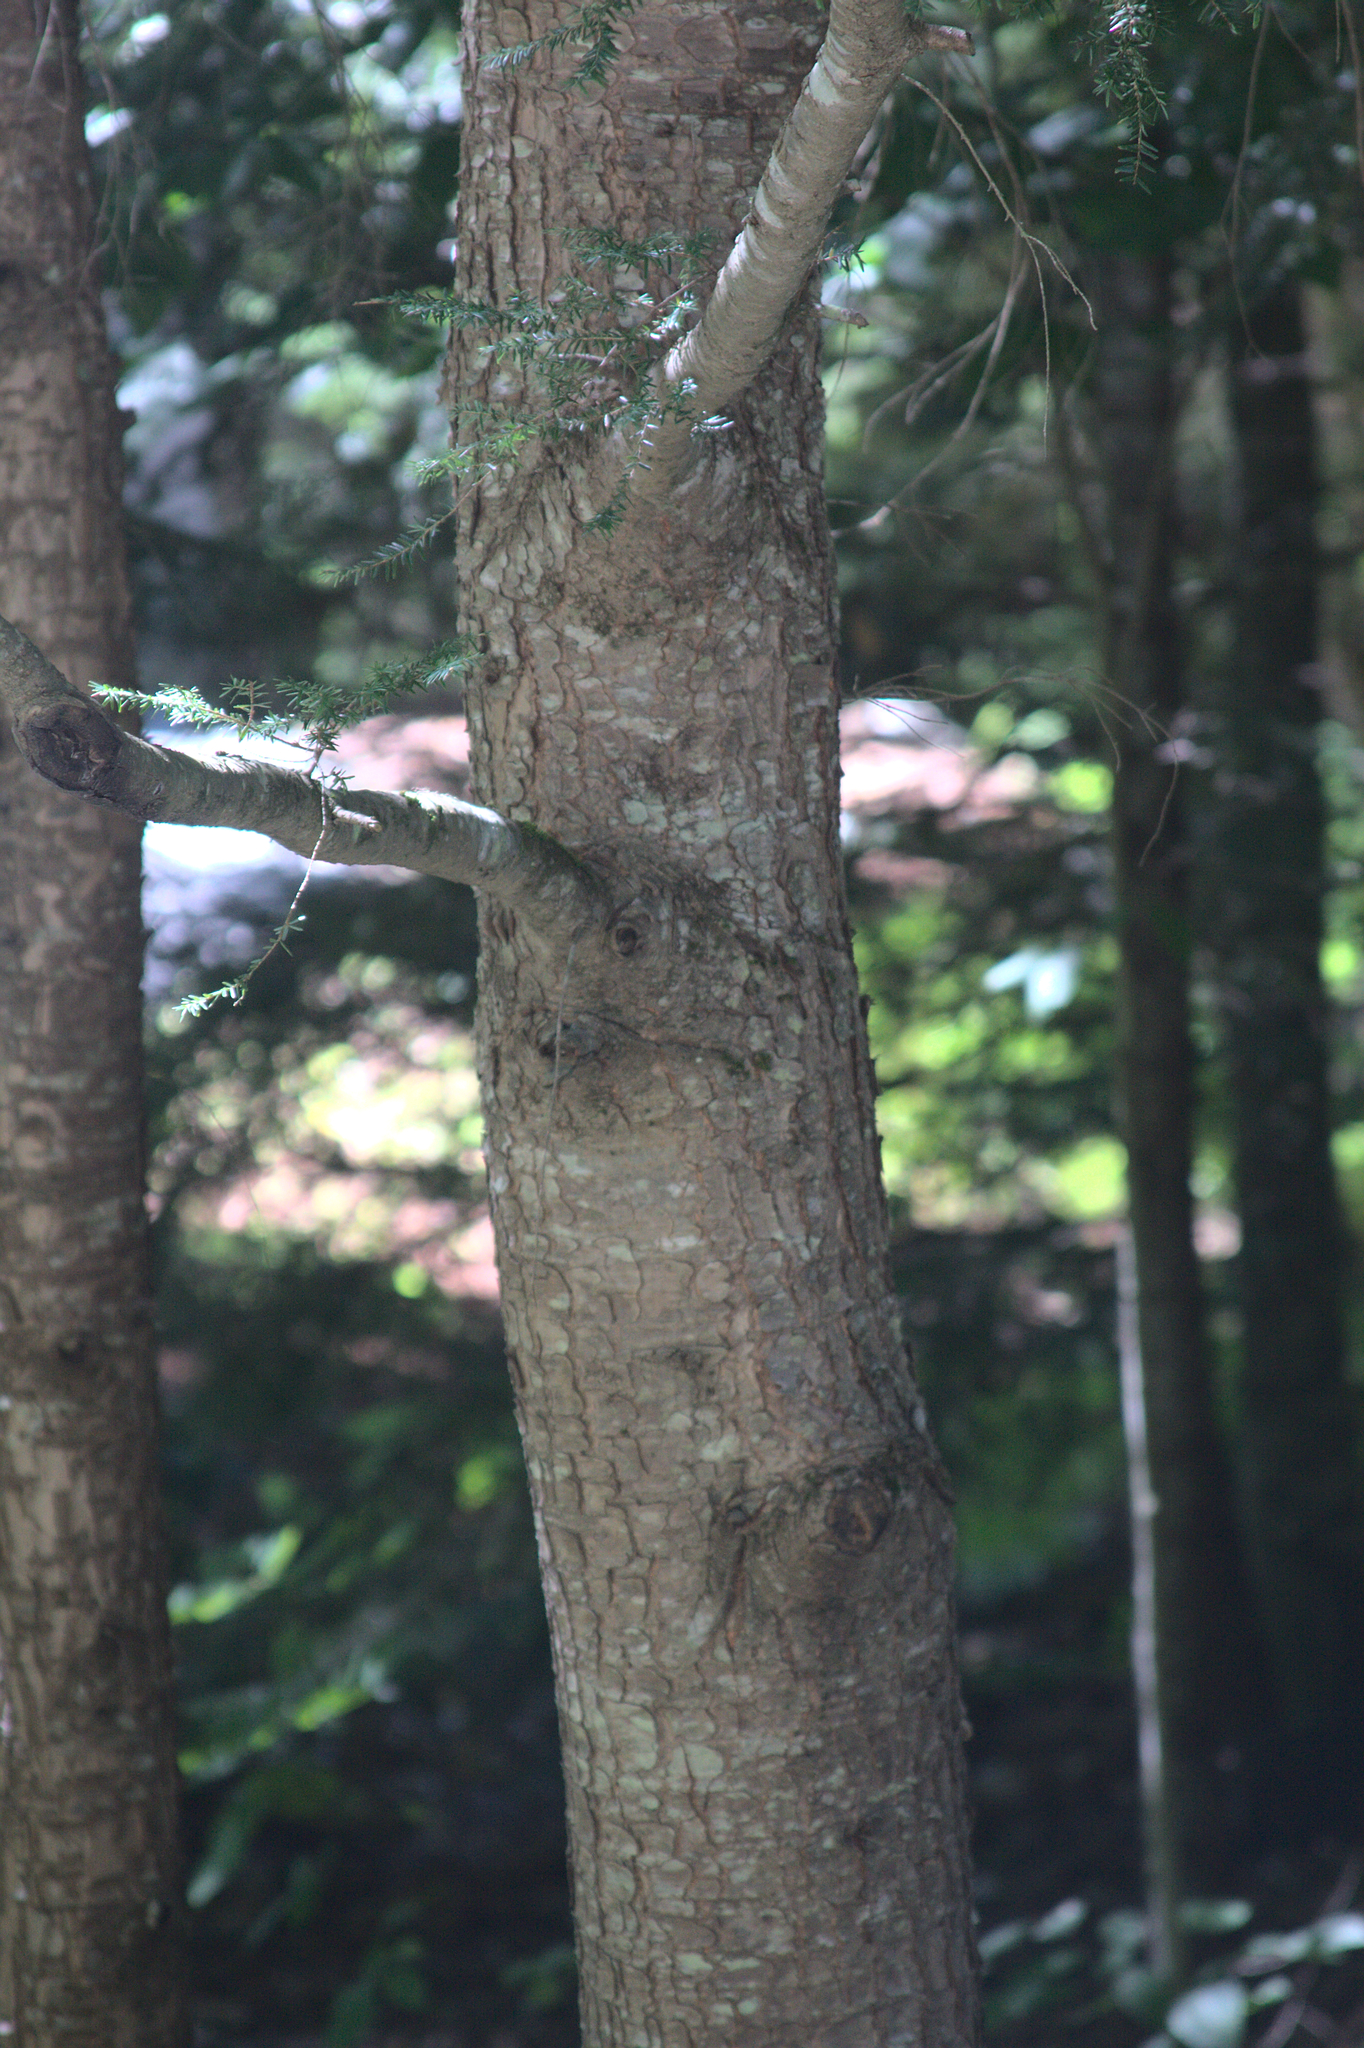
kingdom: Plantae
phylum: Tracheophyta
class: Pinopsida
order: Pinales
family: Pinaceae
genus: Tsuga
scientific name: Tsuga canadensis
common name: Eastern hemlock
